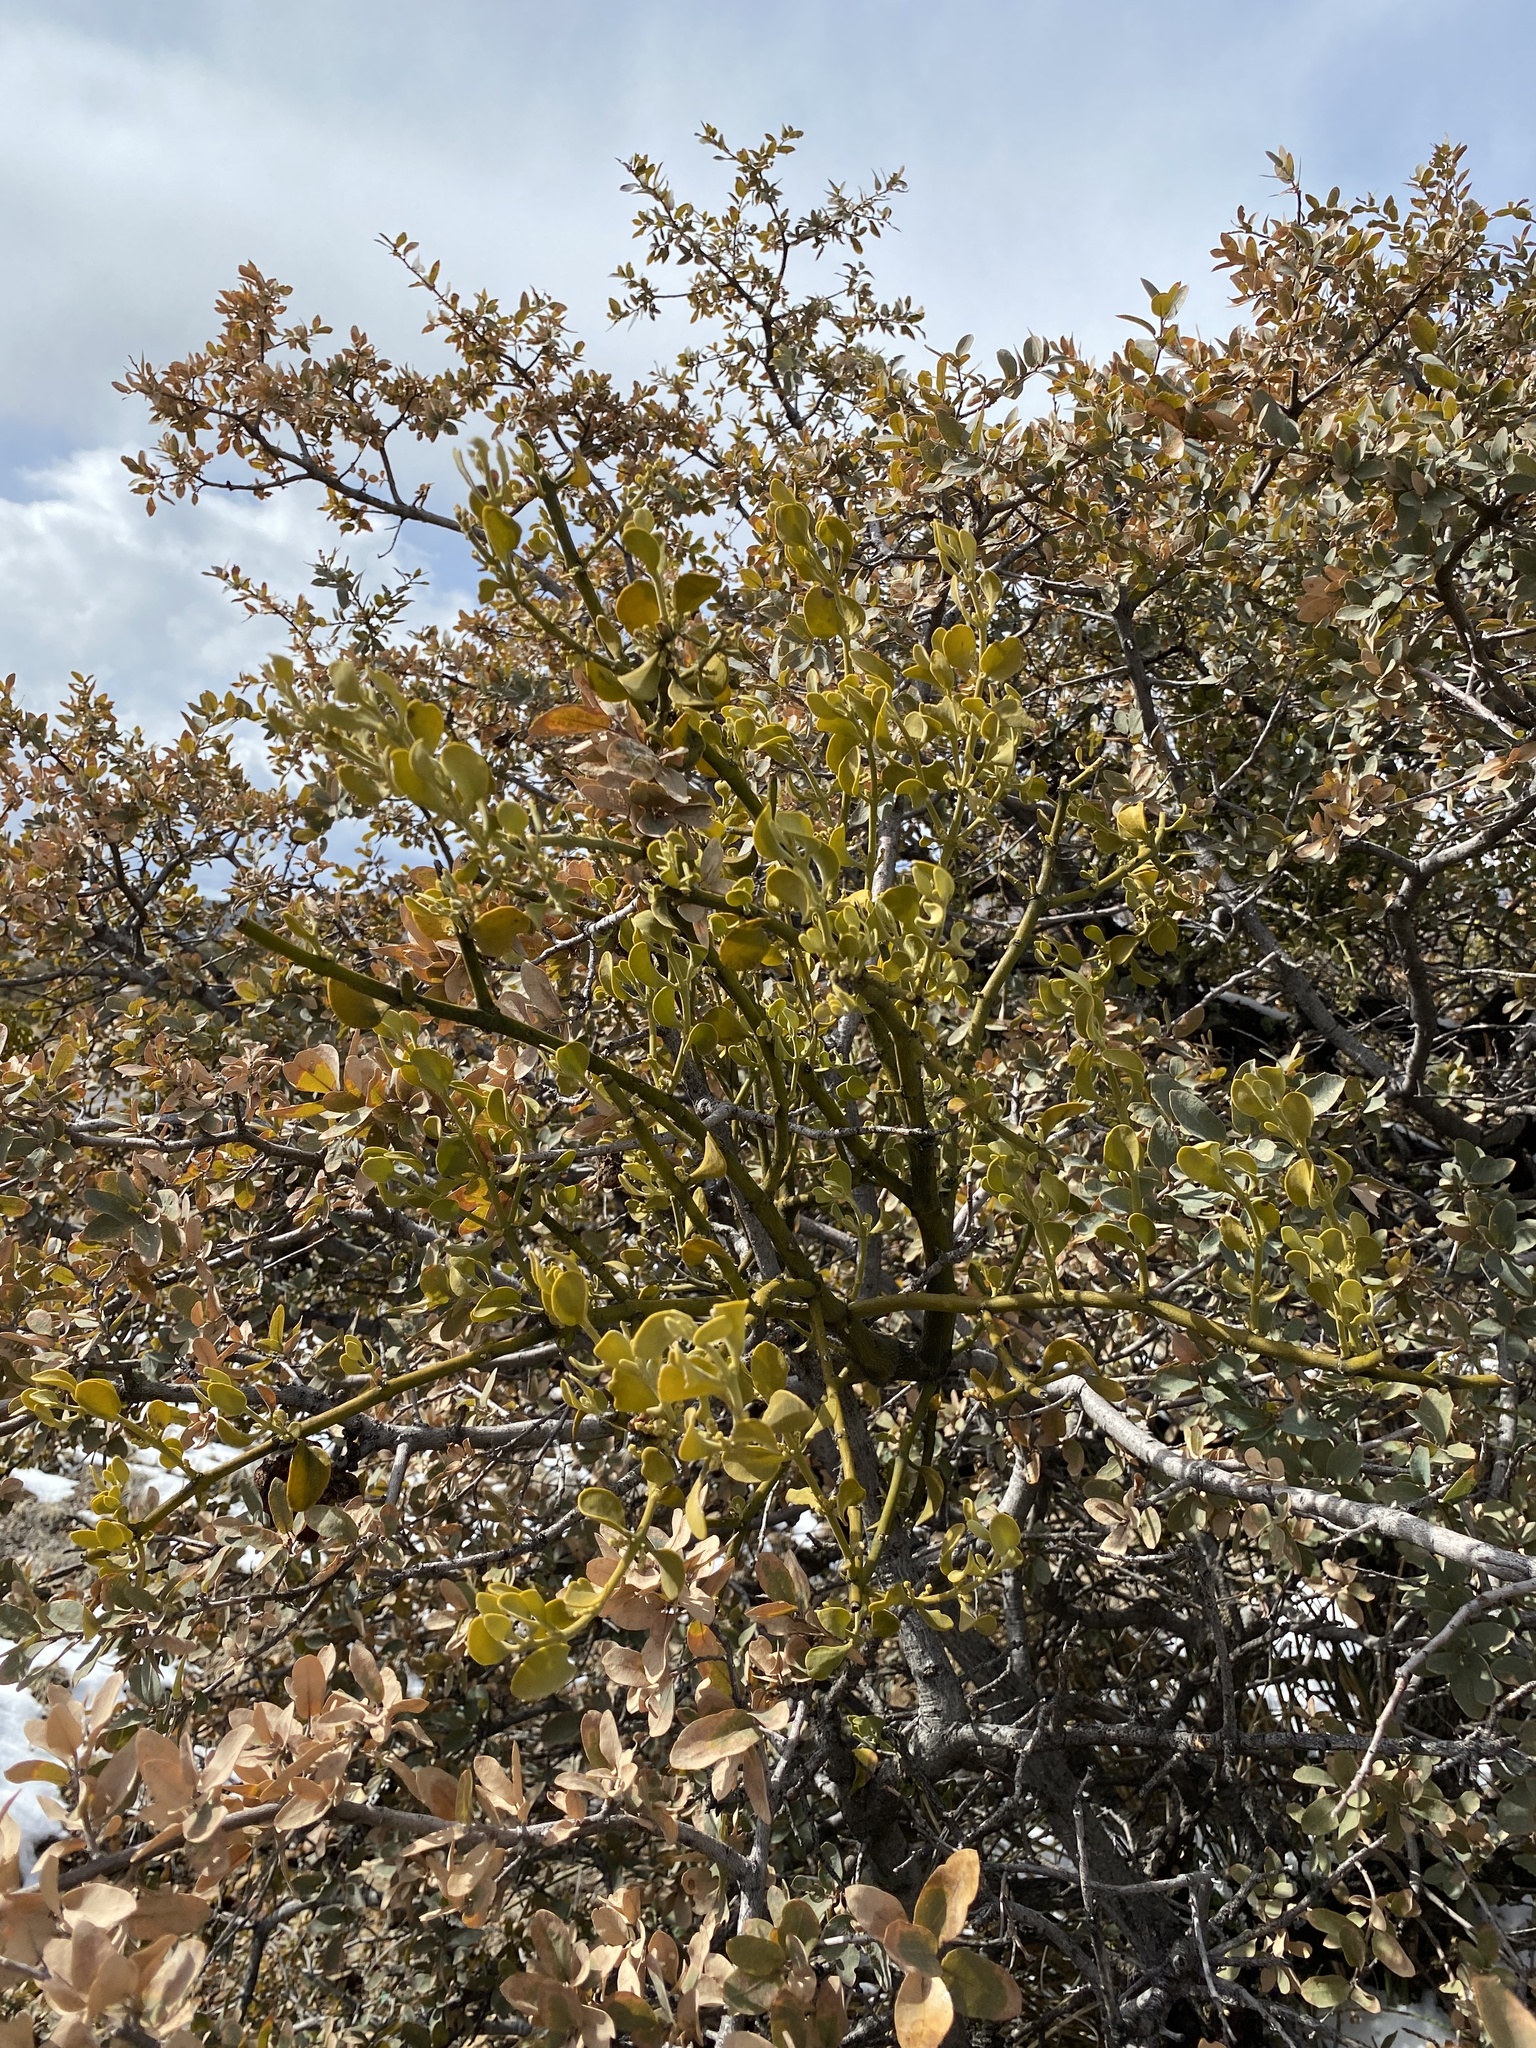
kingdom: Plantae
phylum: Tracheophyta
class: Magnoliopsida
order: Santalales
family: Viscaceae
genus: Phoradendron
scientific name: Phoradendron coryae
